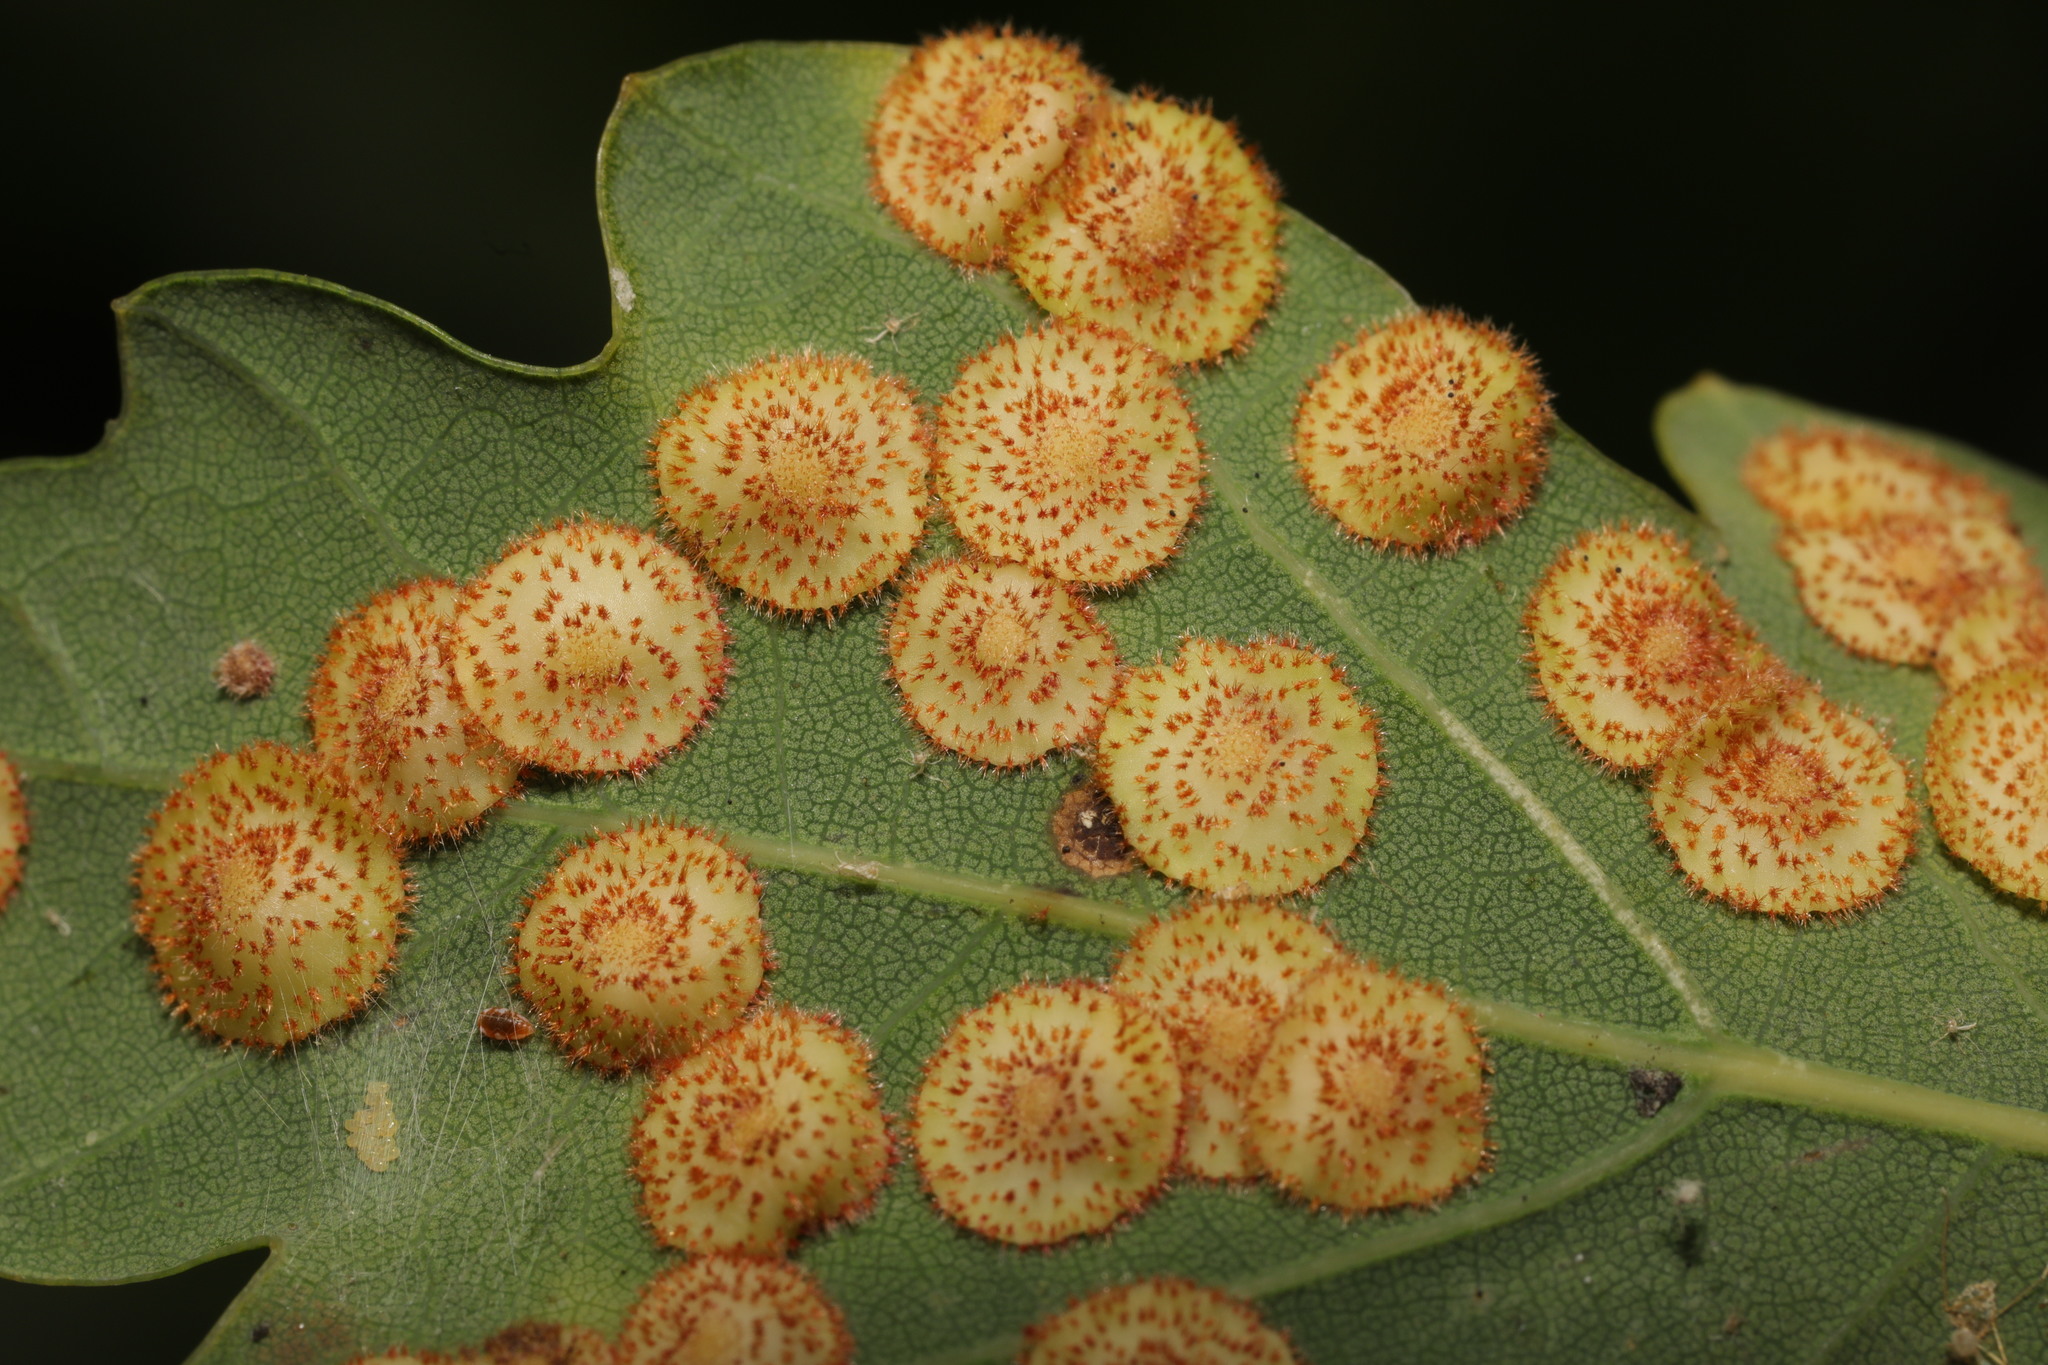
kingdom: Animalia
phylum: Arthropoda
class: Insecta
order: Hymenoptera
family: Cynipidae
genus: Neuroterus
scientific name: Neuroterus quercusbaccarum
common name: Common spangle gall
